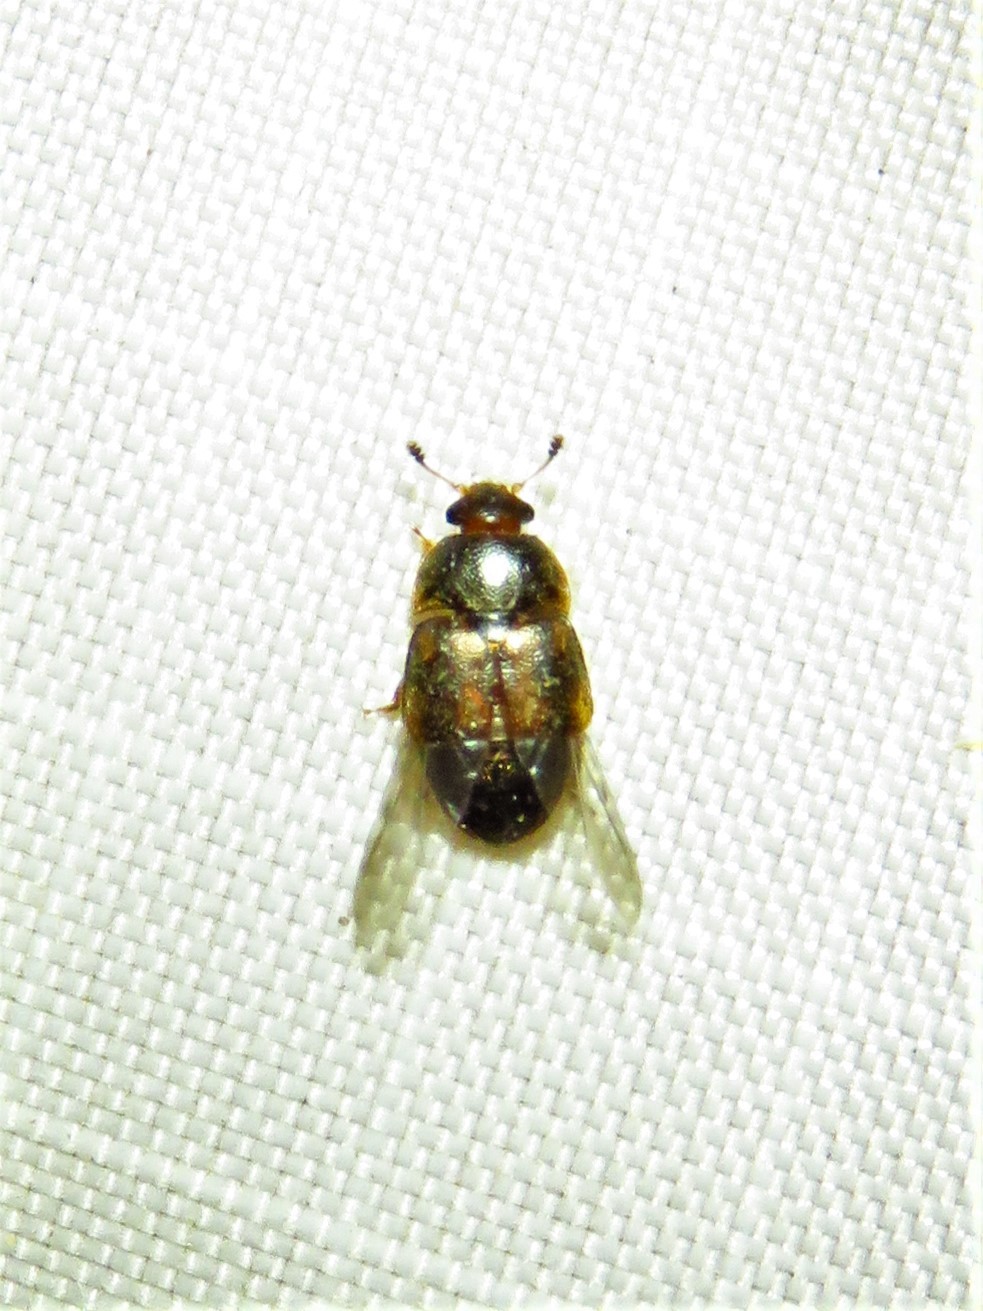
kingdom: Animalia
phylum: Arthropoda
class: Insecta
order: Coleoptera
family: Nitidulidae
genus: Colopterus
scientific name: Colopterus maculatus
